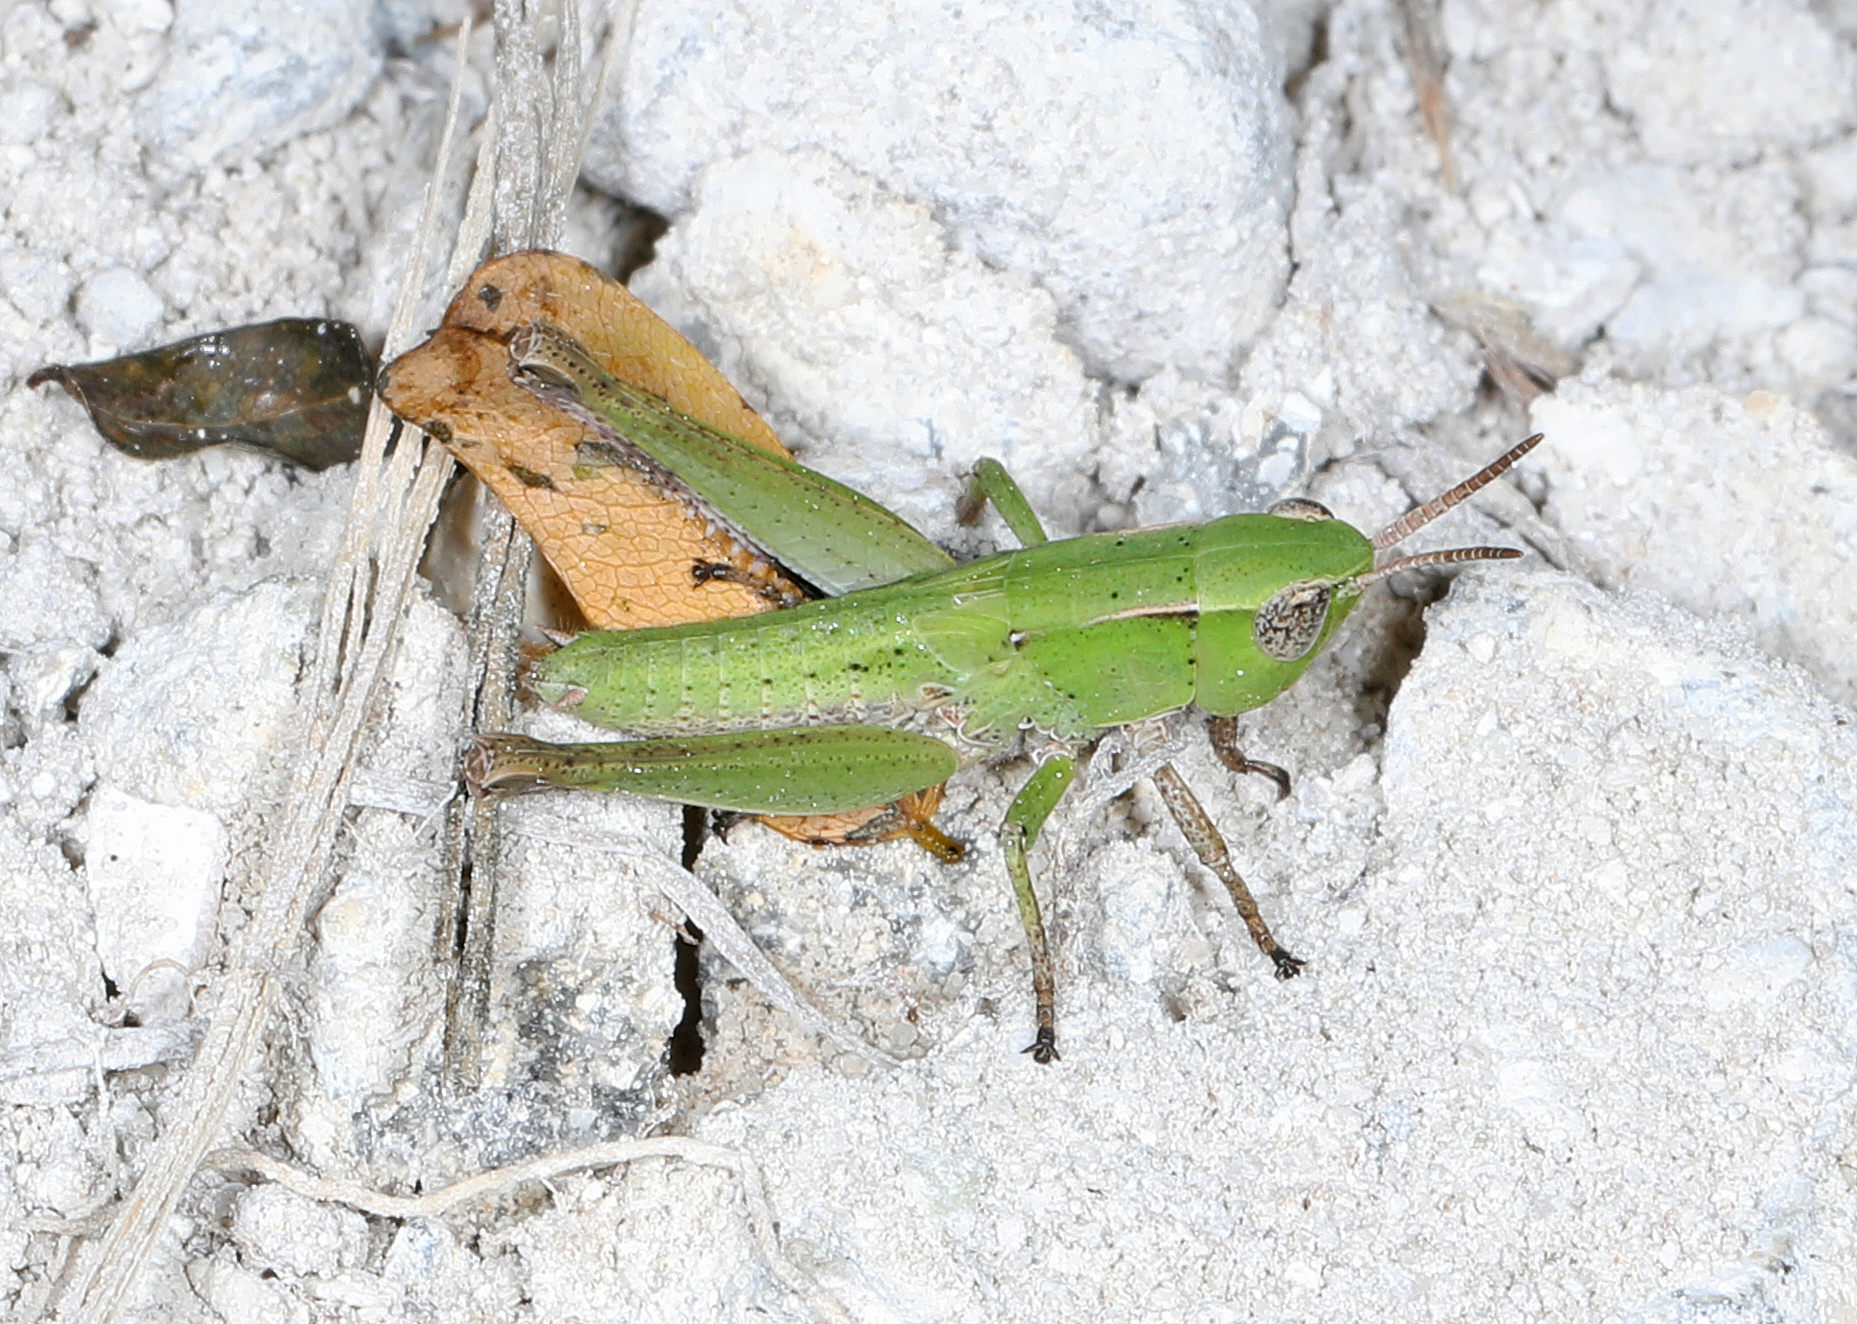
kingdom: Animalia
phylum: Arthropoda
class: Insecta
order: Orthoptera
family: Acrididae
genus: Dichromorpha
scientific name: Dichromorpha viridis
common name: Short-winged green grasshopper
